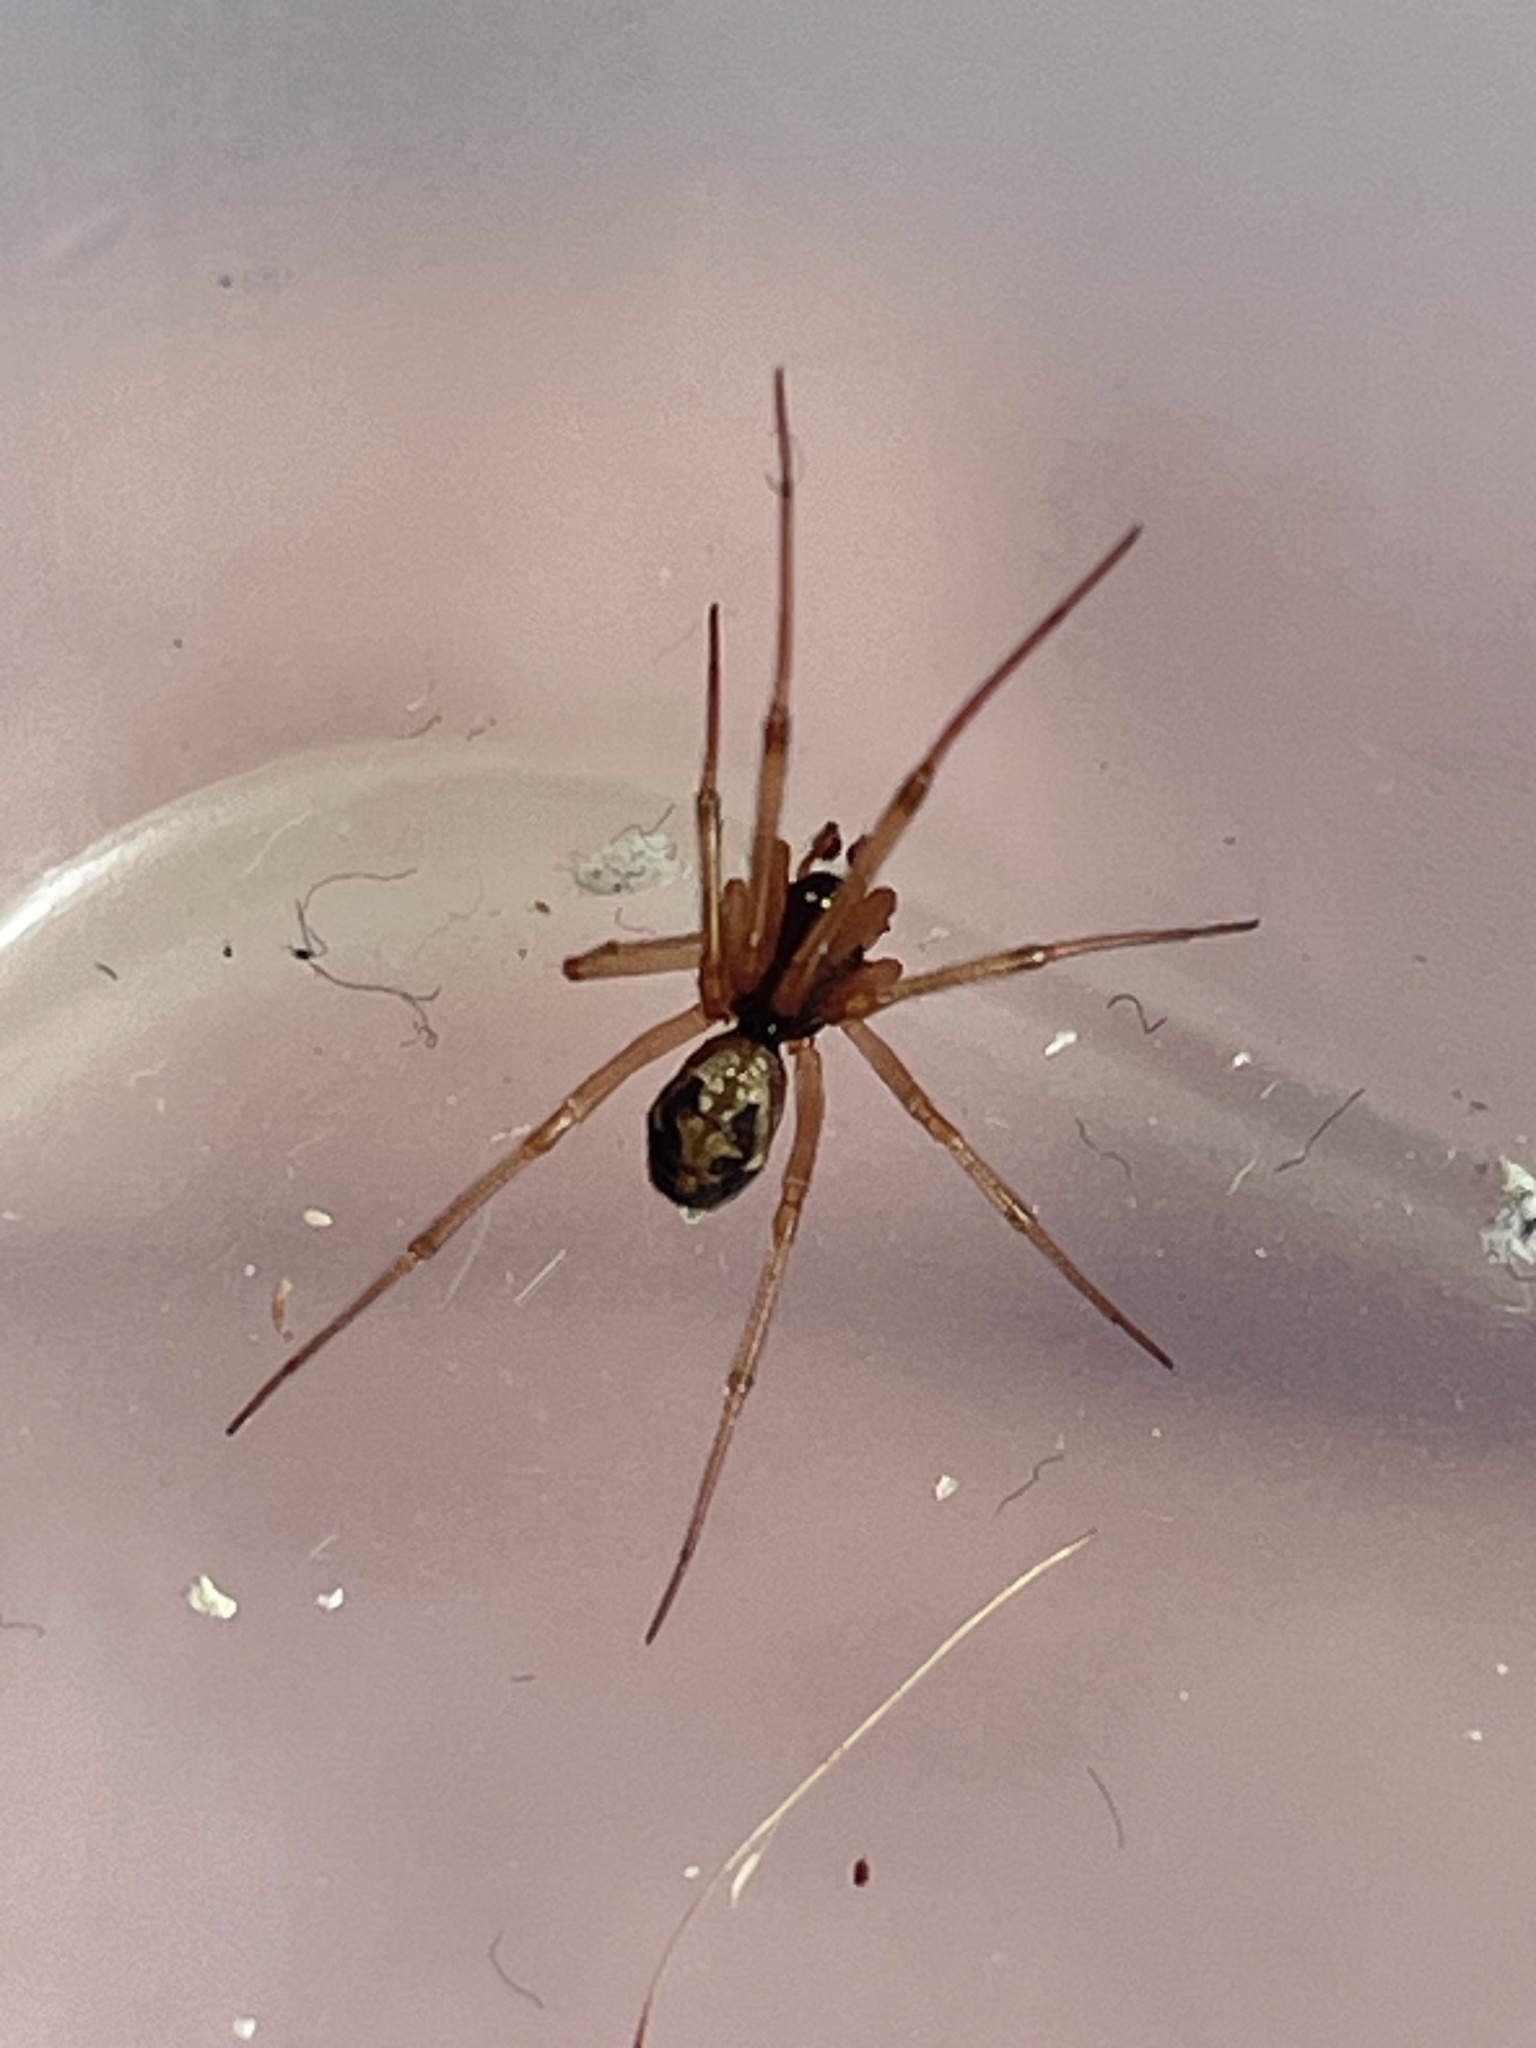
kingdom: Animalia
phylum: Arthropoda
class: Arachnida
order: Araneae
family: Theridiidae
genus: Steatoda
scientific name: Steatoda triangulosa
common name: Triangulate bud spider
